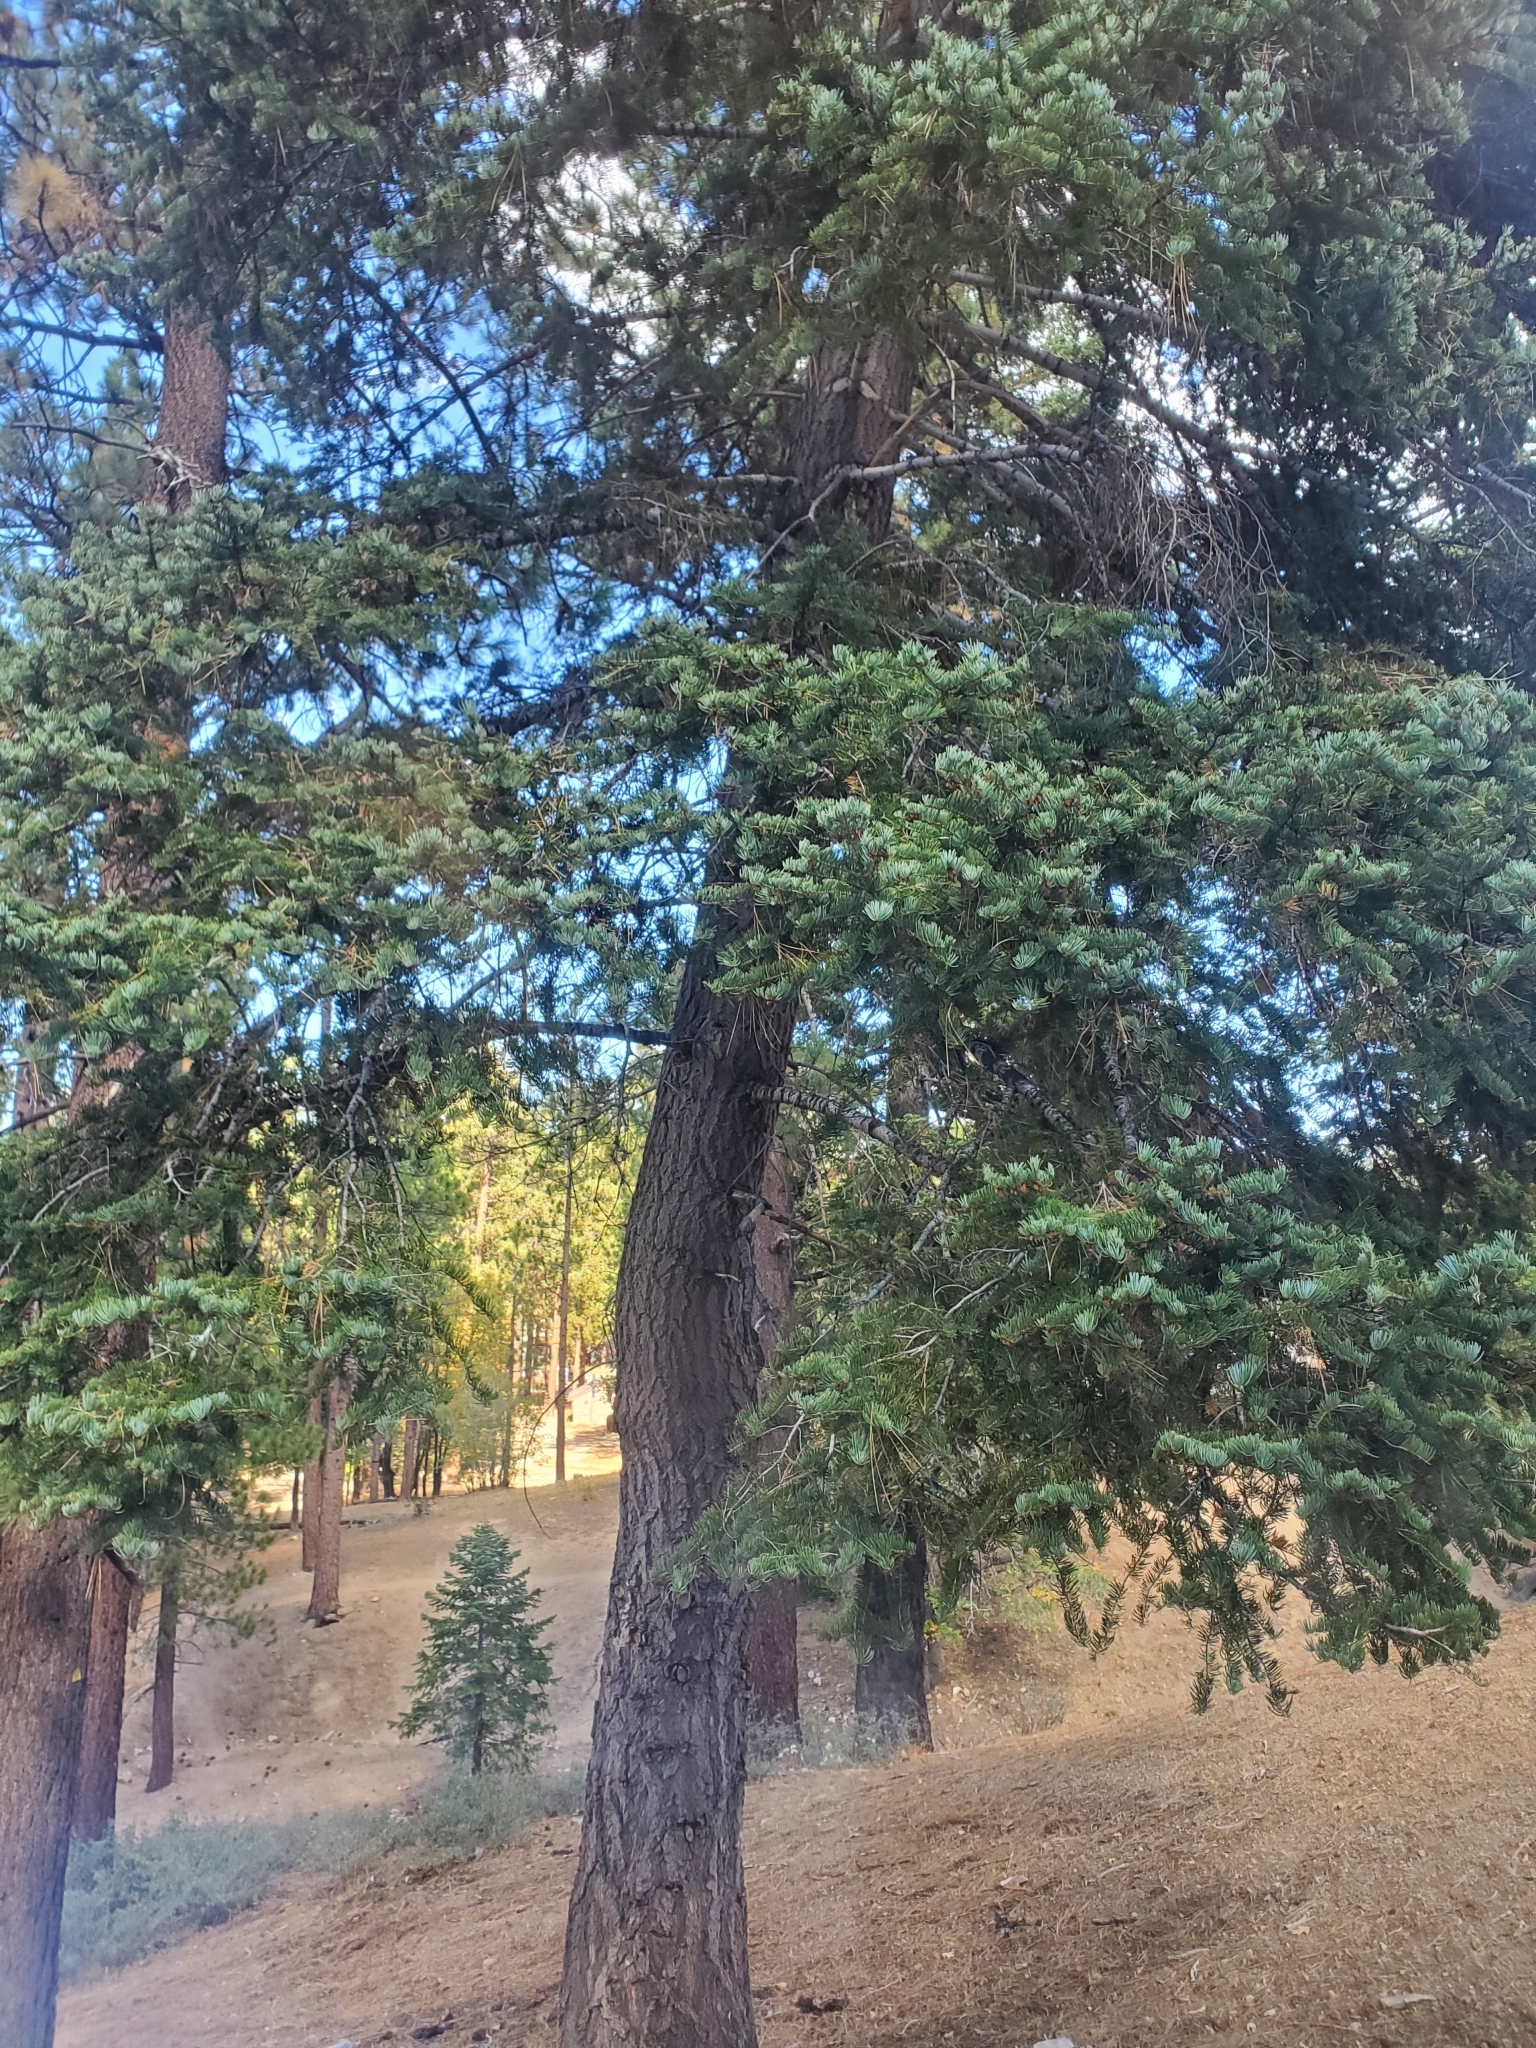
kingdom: Plantae
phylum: Tracheophyta
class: Pinopsida
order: Pinales
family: Pinaceae
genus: Abies
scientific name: Abies concolor
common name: Colorado fir
